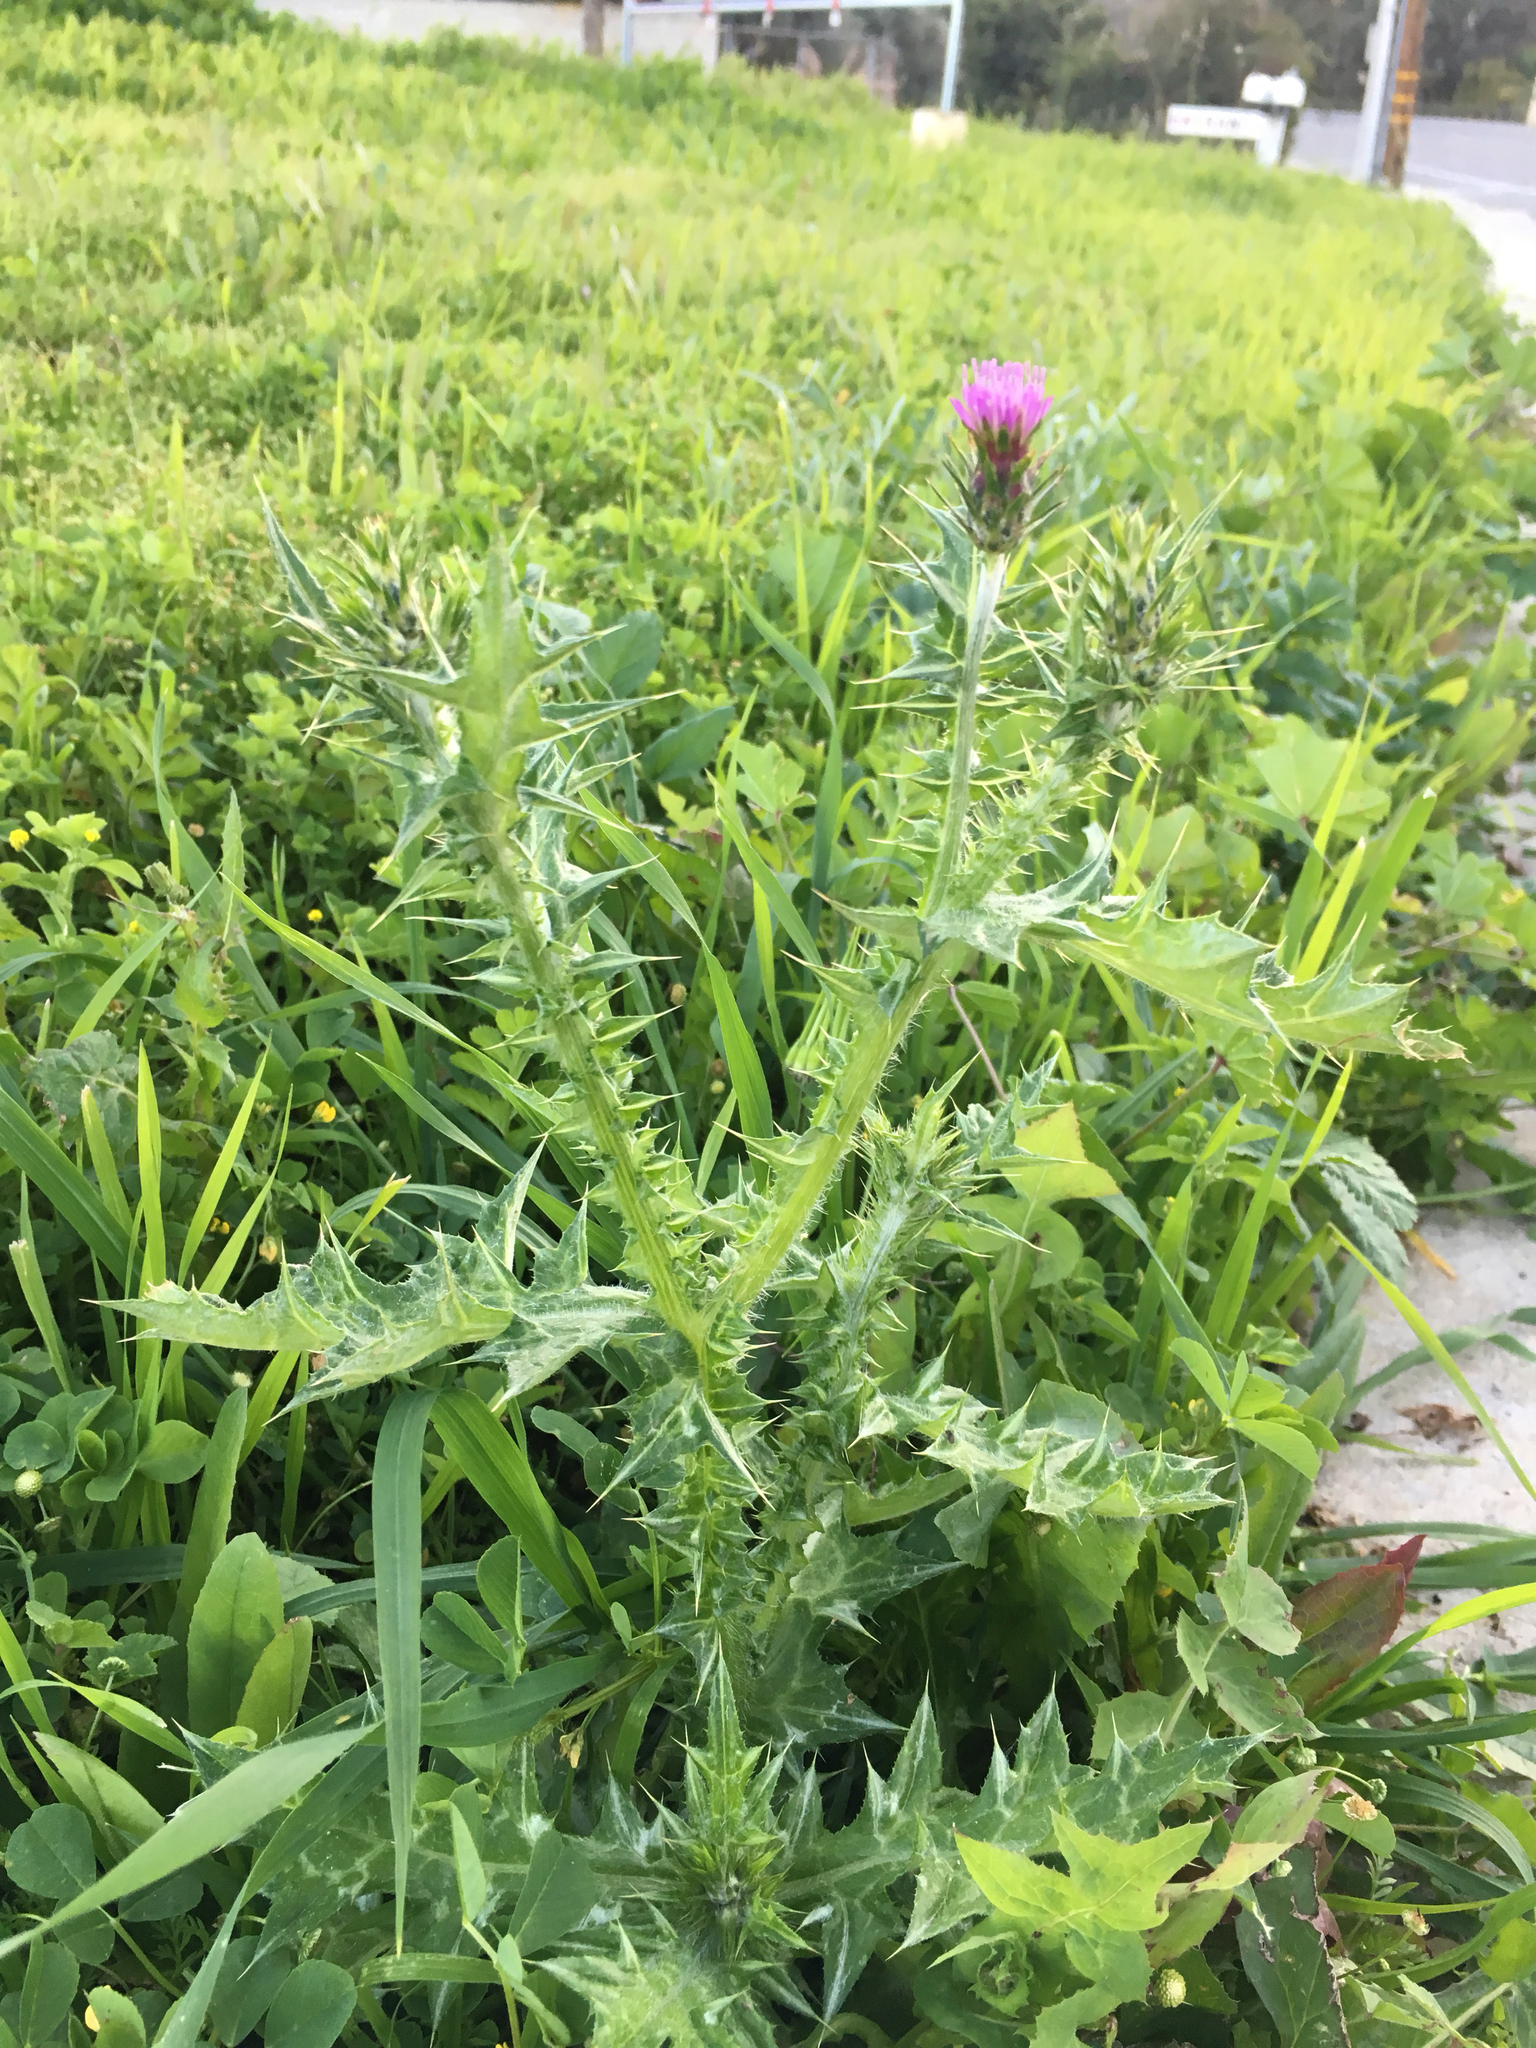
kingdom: Plantae
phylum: Tracheophyta
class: Magnoliopsida
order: Asterales
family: Asteraceae
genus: Carduus
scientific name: Carduus pycnocephalus
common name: Plymouth thistle
